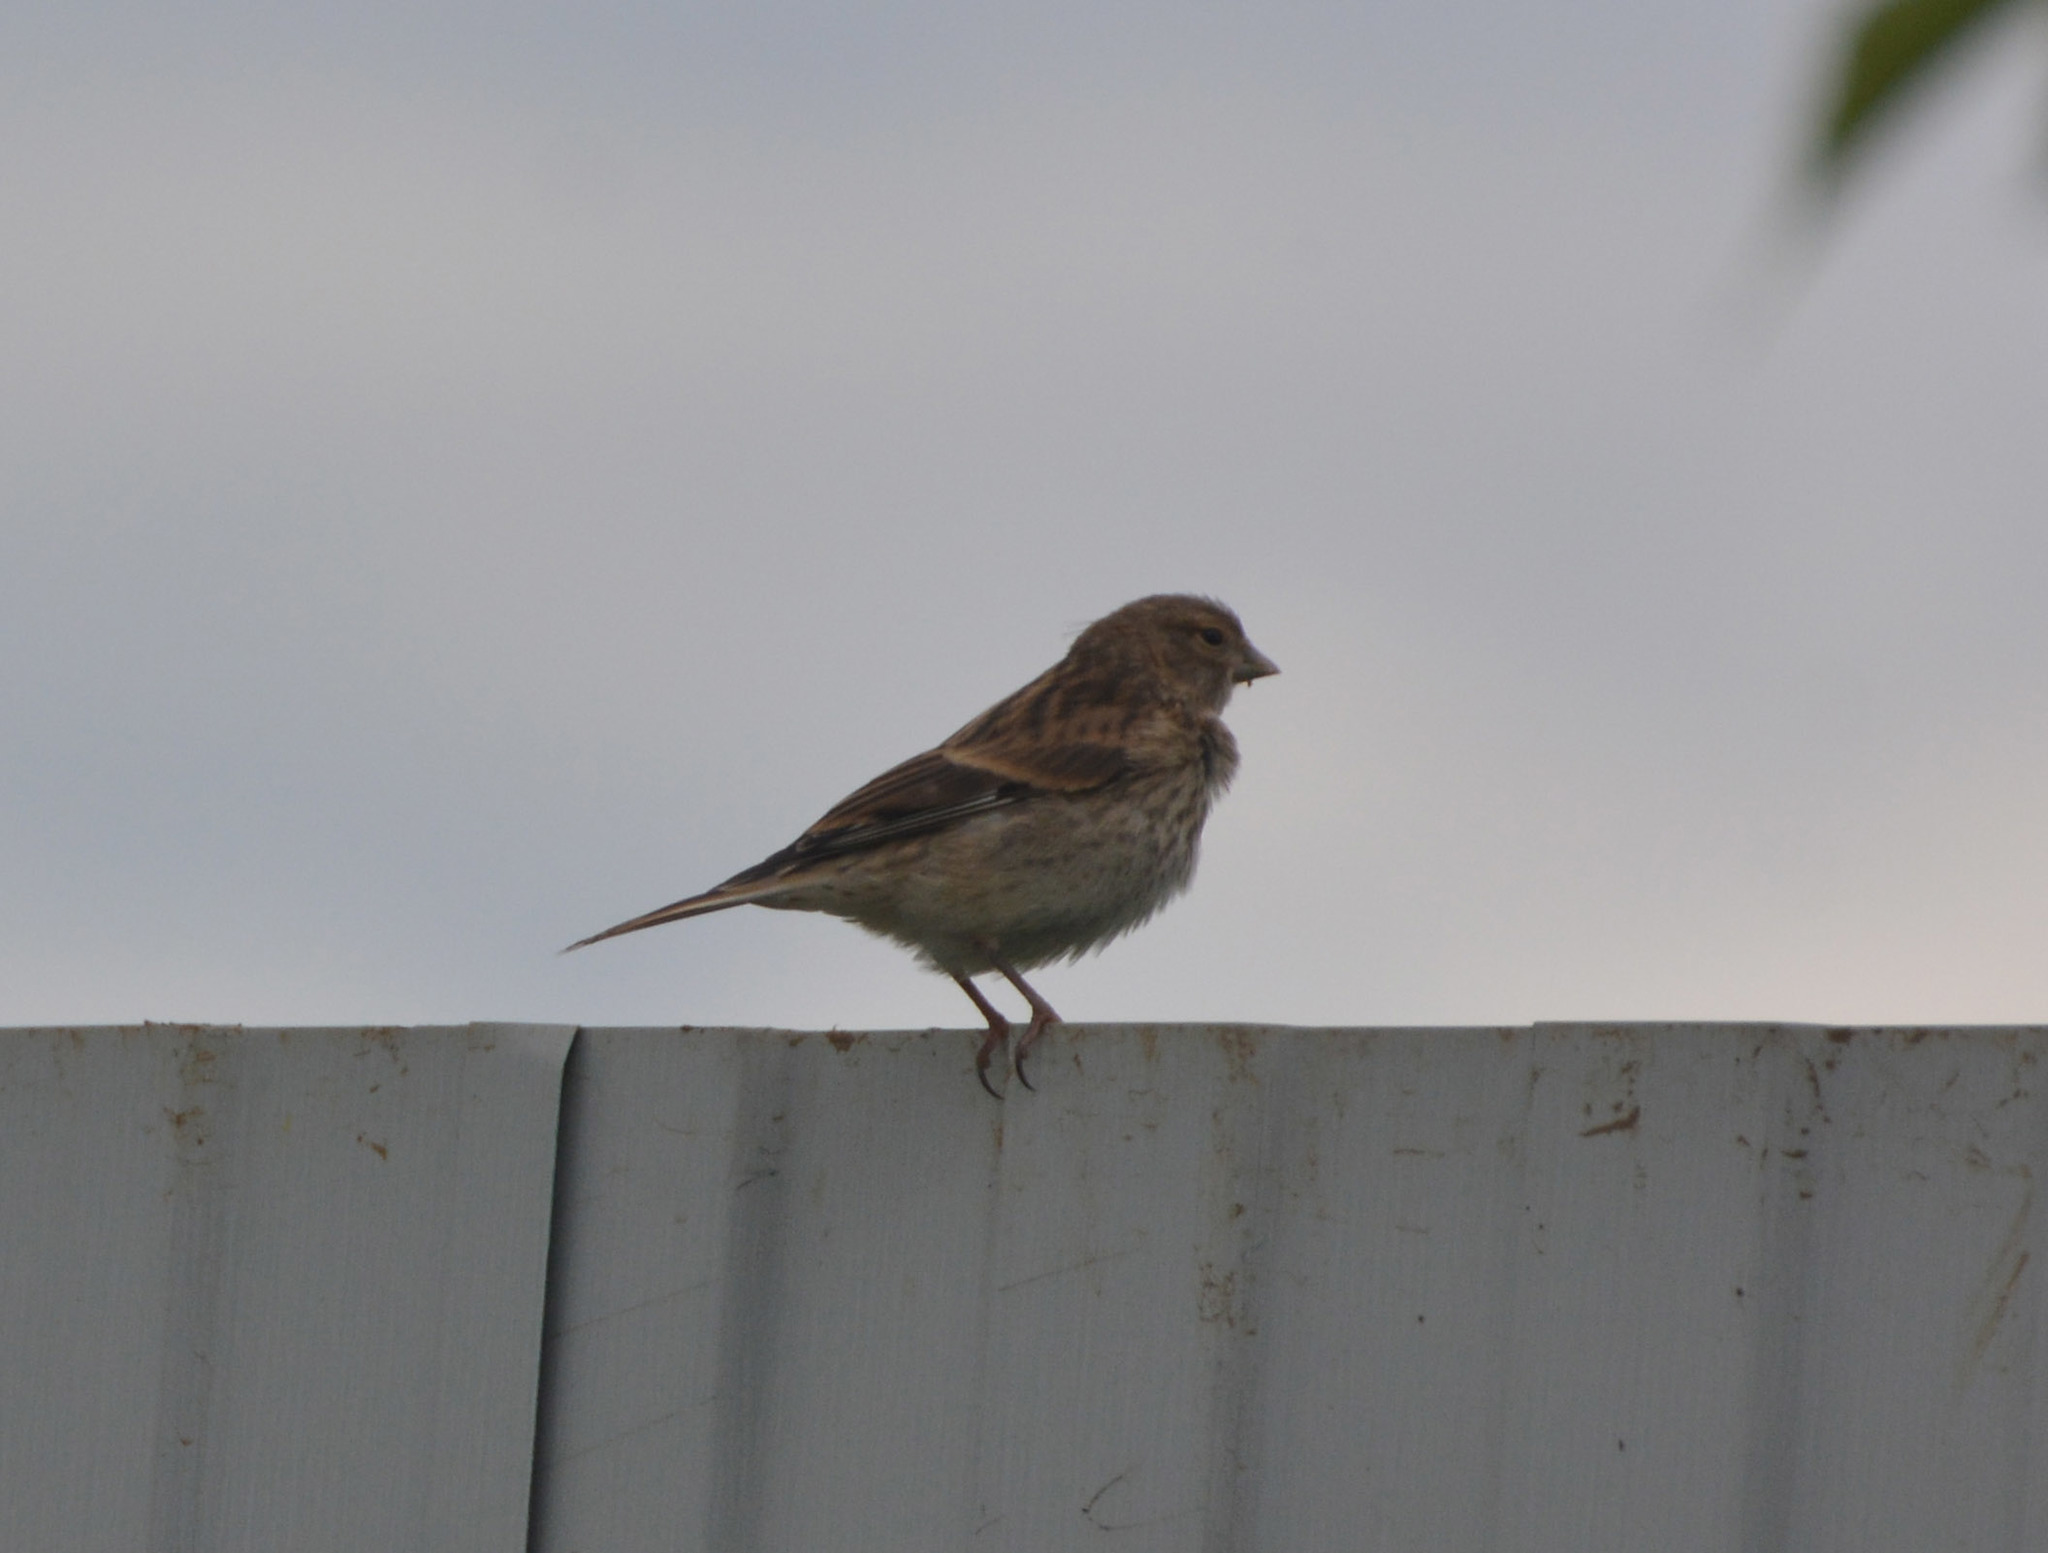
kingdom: Animalia
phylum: Chordata
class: Aves
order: Passeriformes
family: Fringillidae
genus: Linaria
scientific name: Linaria cannabina
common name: Common linnet
